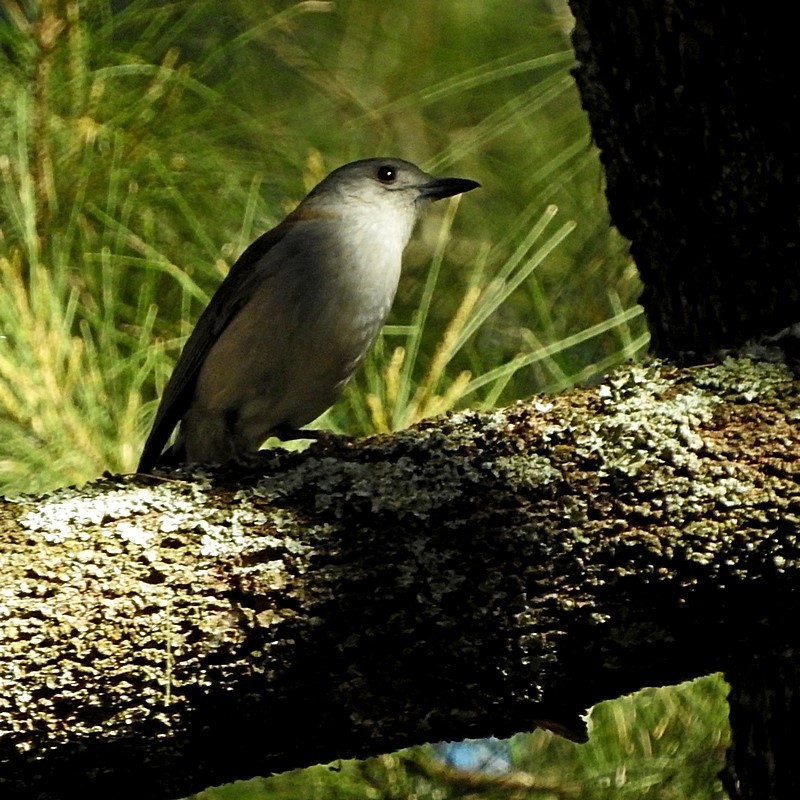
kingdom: Animalia
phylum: Chordata
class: Aves
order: Passeriformes
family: Pachycephalidae
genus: Colluricincla
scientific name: Colluricincla harmonica
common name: Grey shrikethrush
